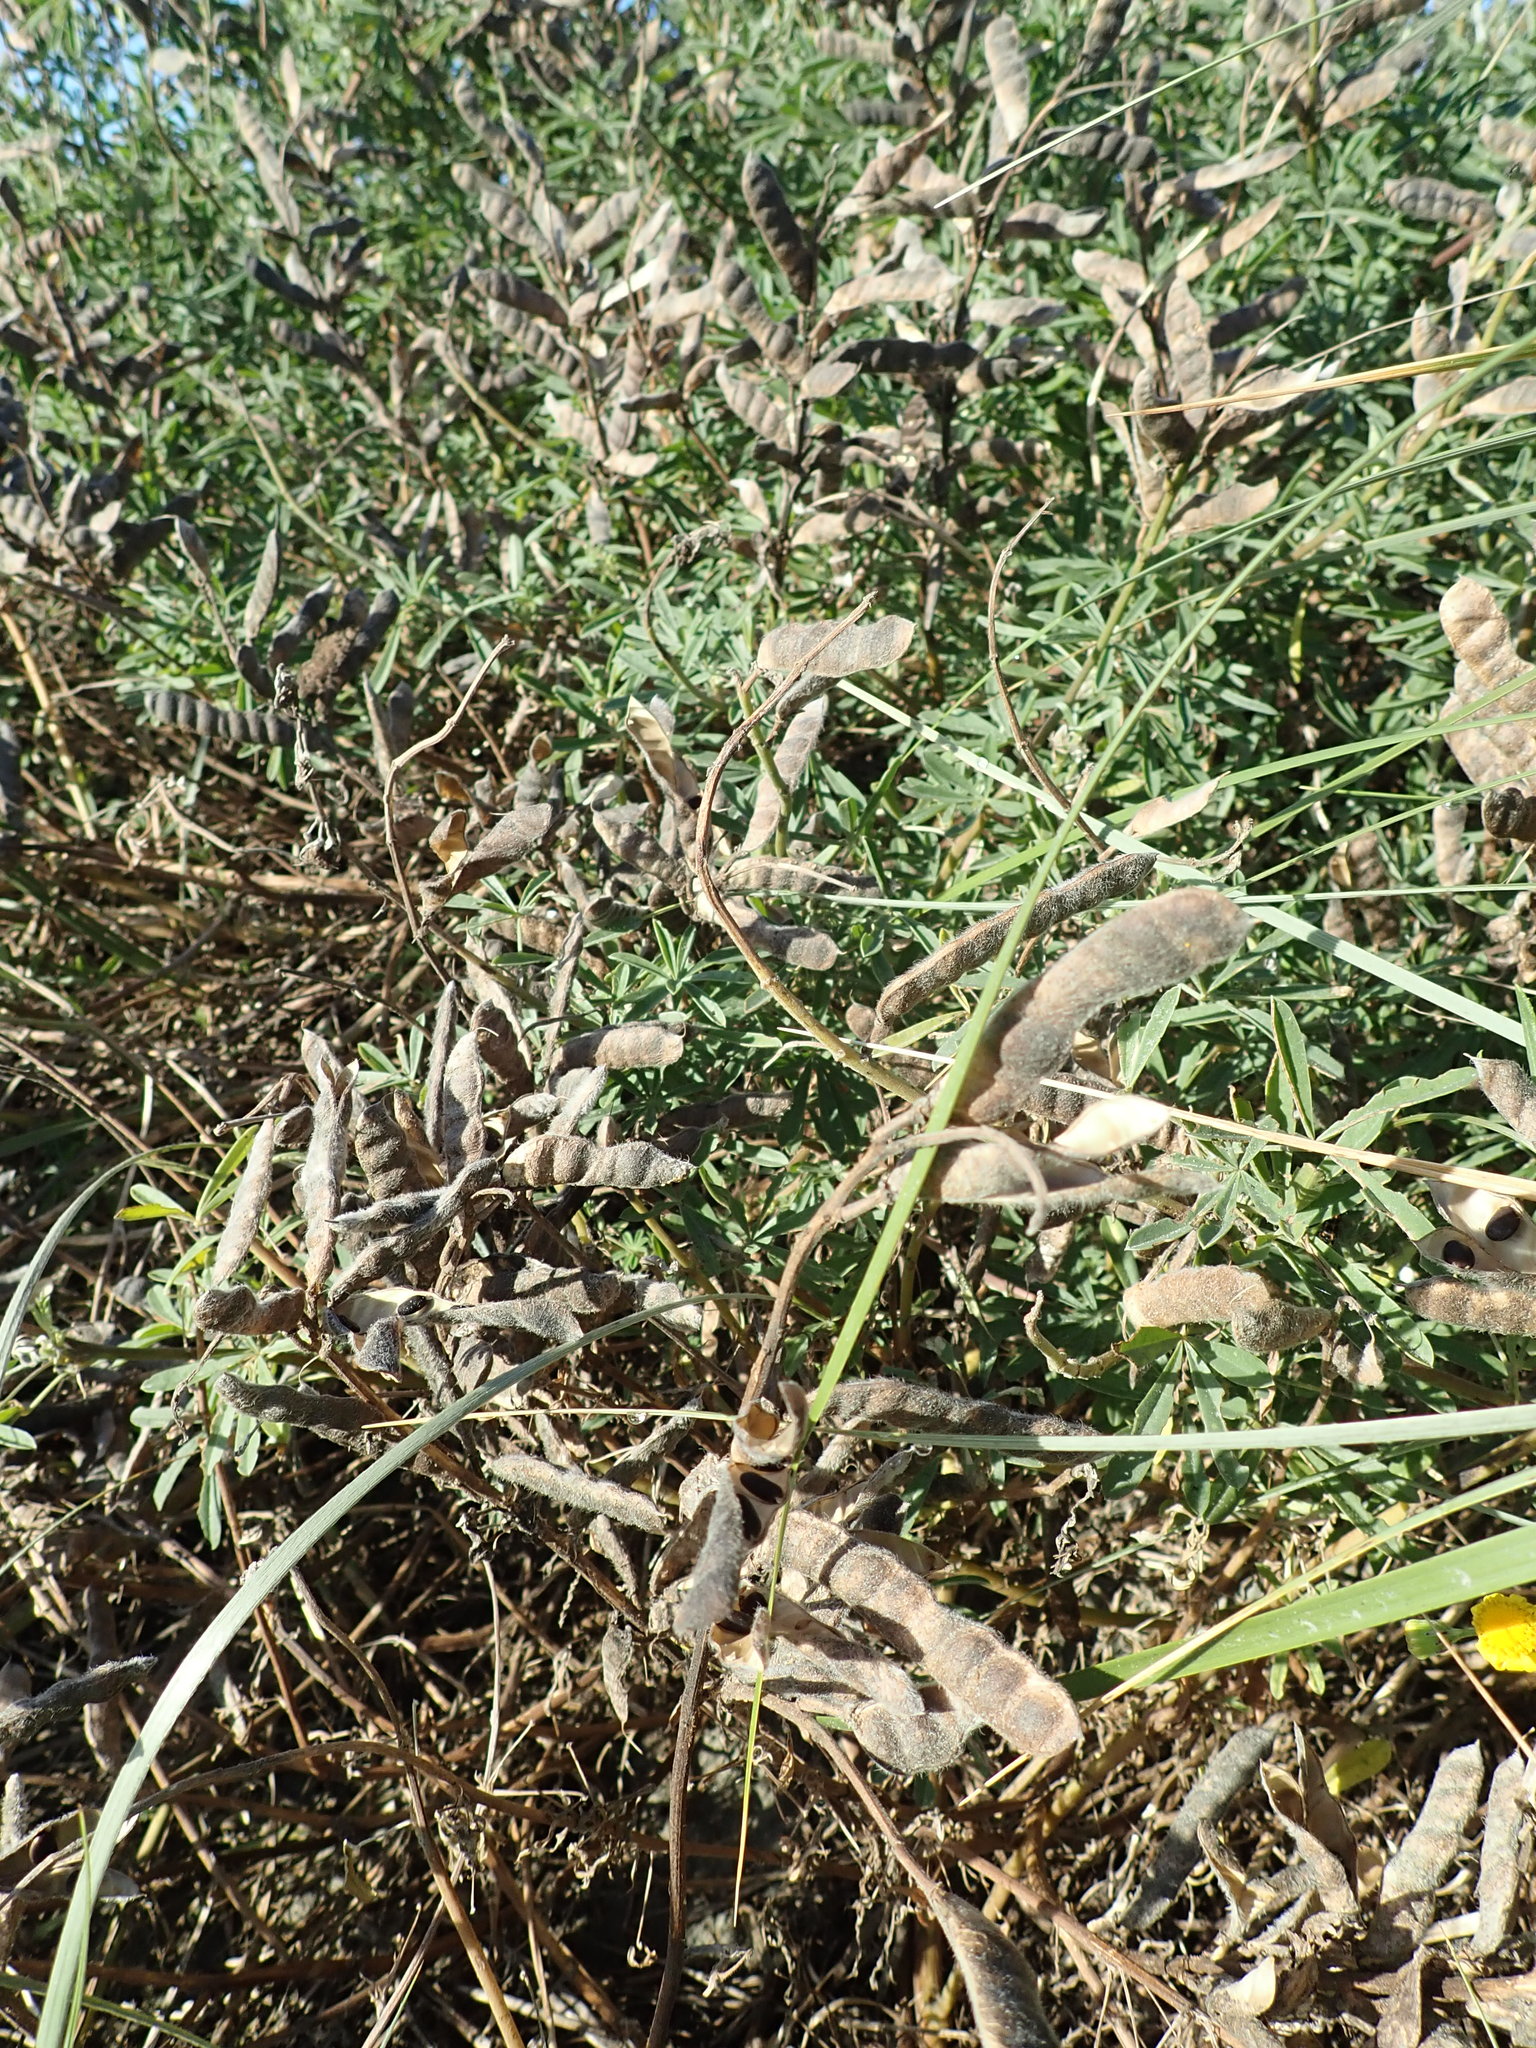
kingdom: Plantae
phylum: Tracheophyta
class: Magnoliopsida
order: Fabales
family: Fabaceae
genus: Lupinus
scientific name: Lupinus arboreus
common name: Yellow bush lupine
